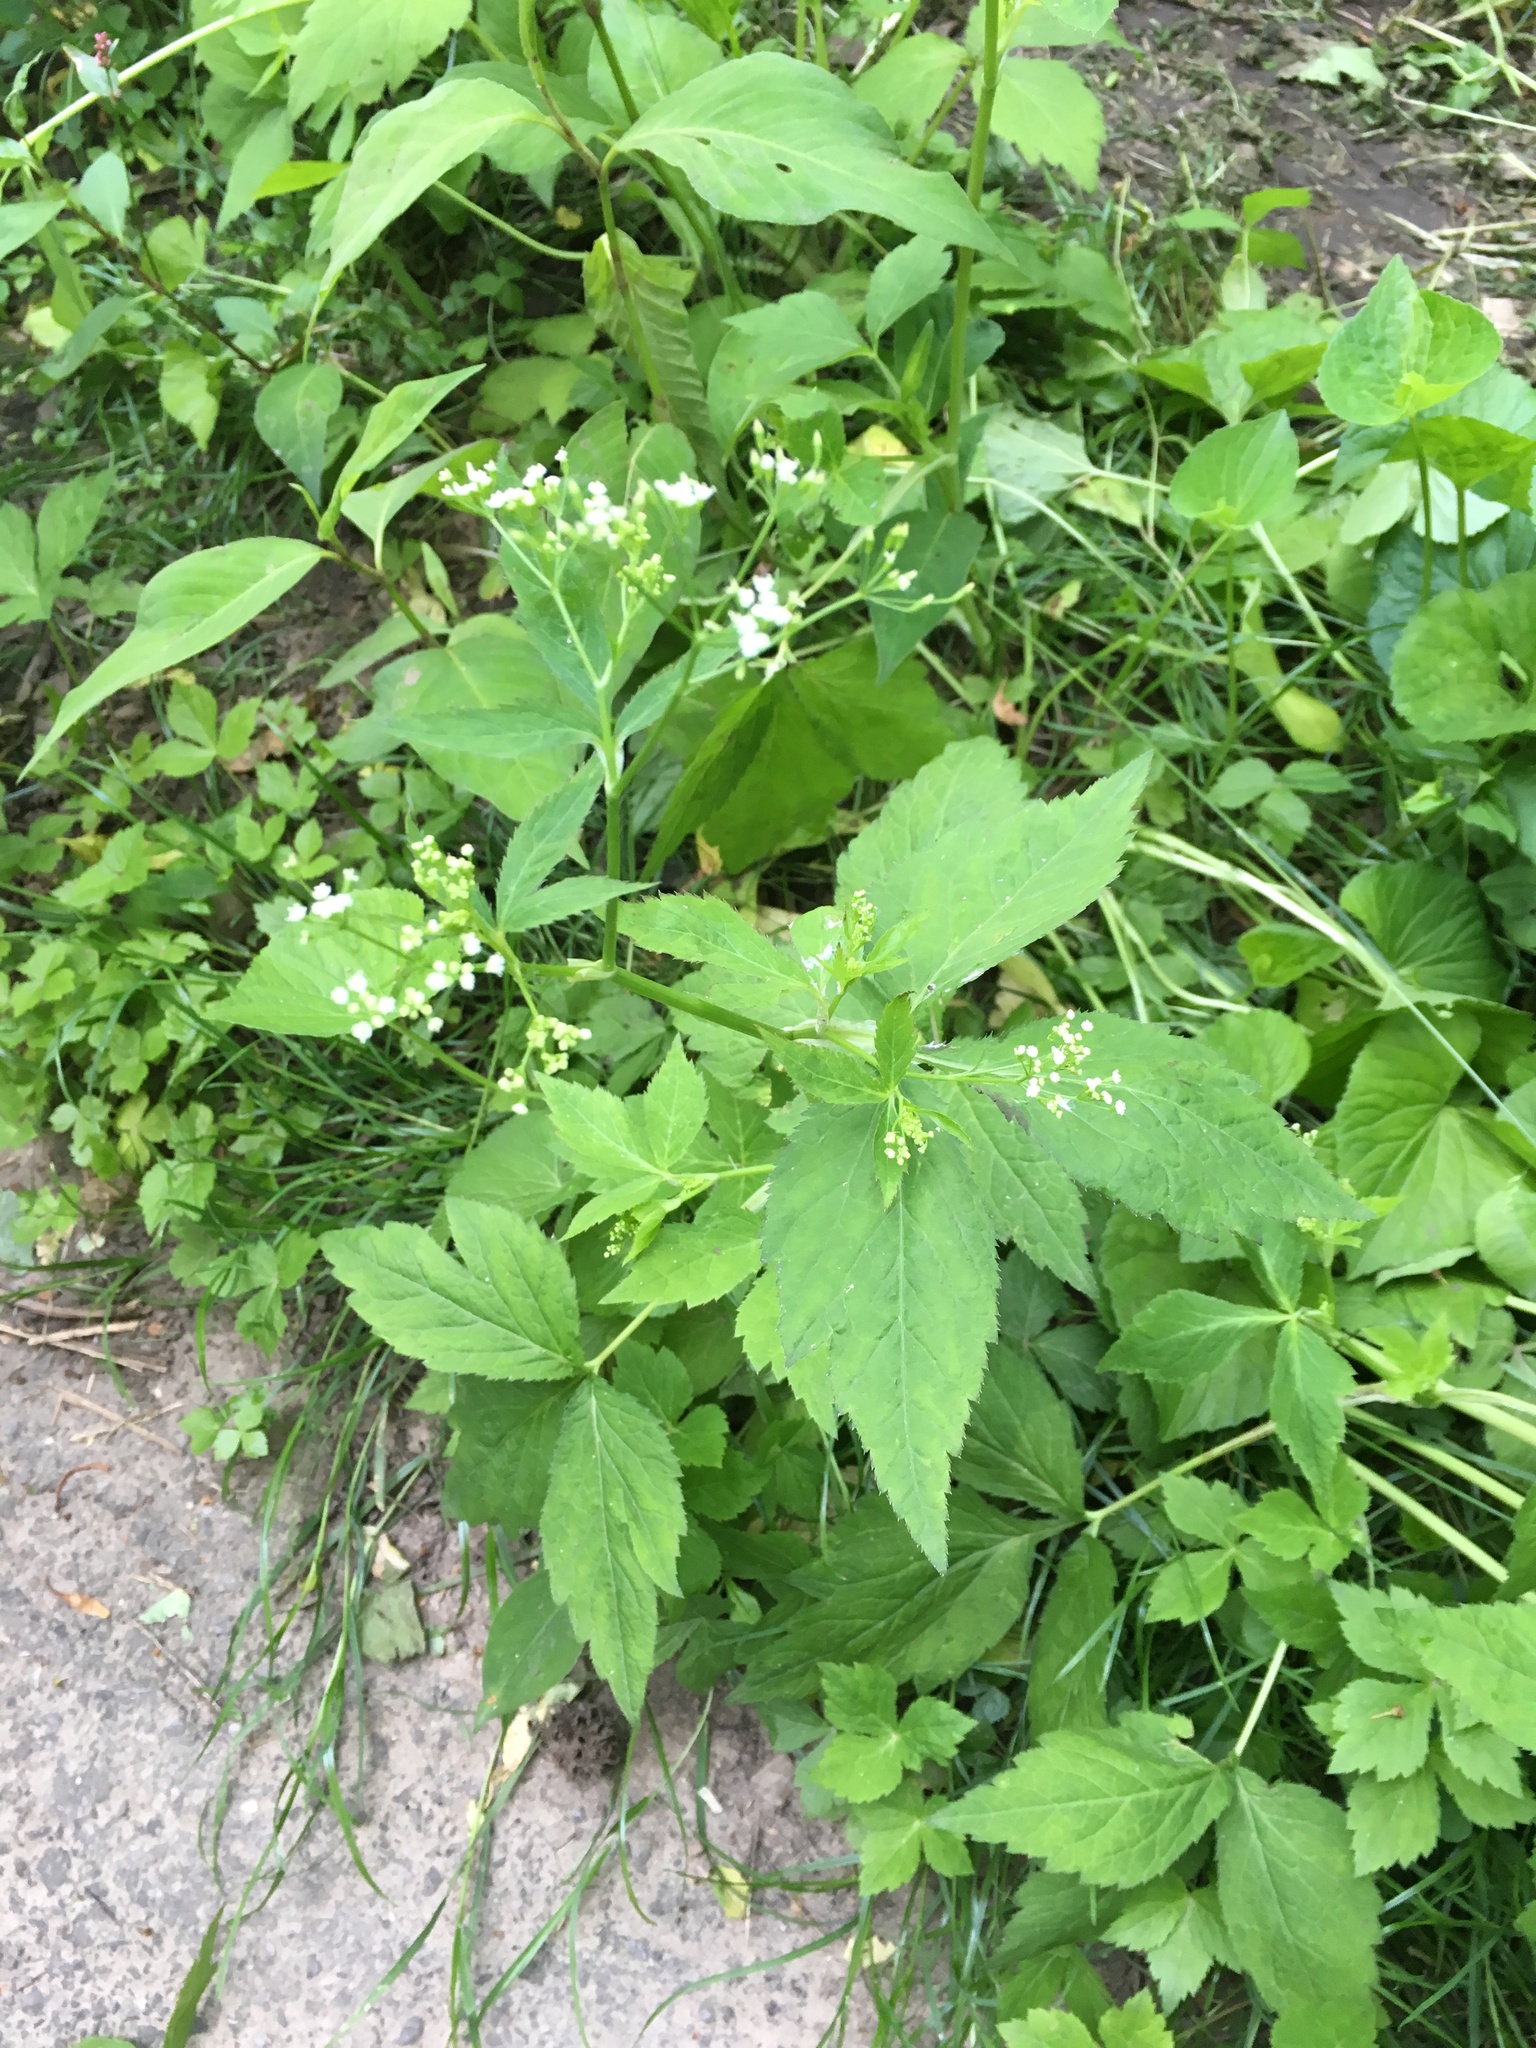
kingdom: Plantae
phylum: Tracheophyta
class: Magnoliopsida
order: Apiales
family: Apiaceae
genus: Cryptotaenia
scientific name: Cryptotaenia canadensis
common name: Honewort
